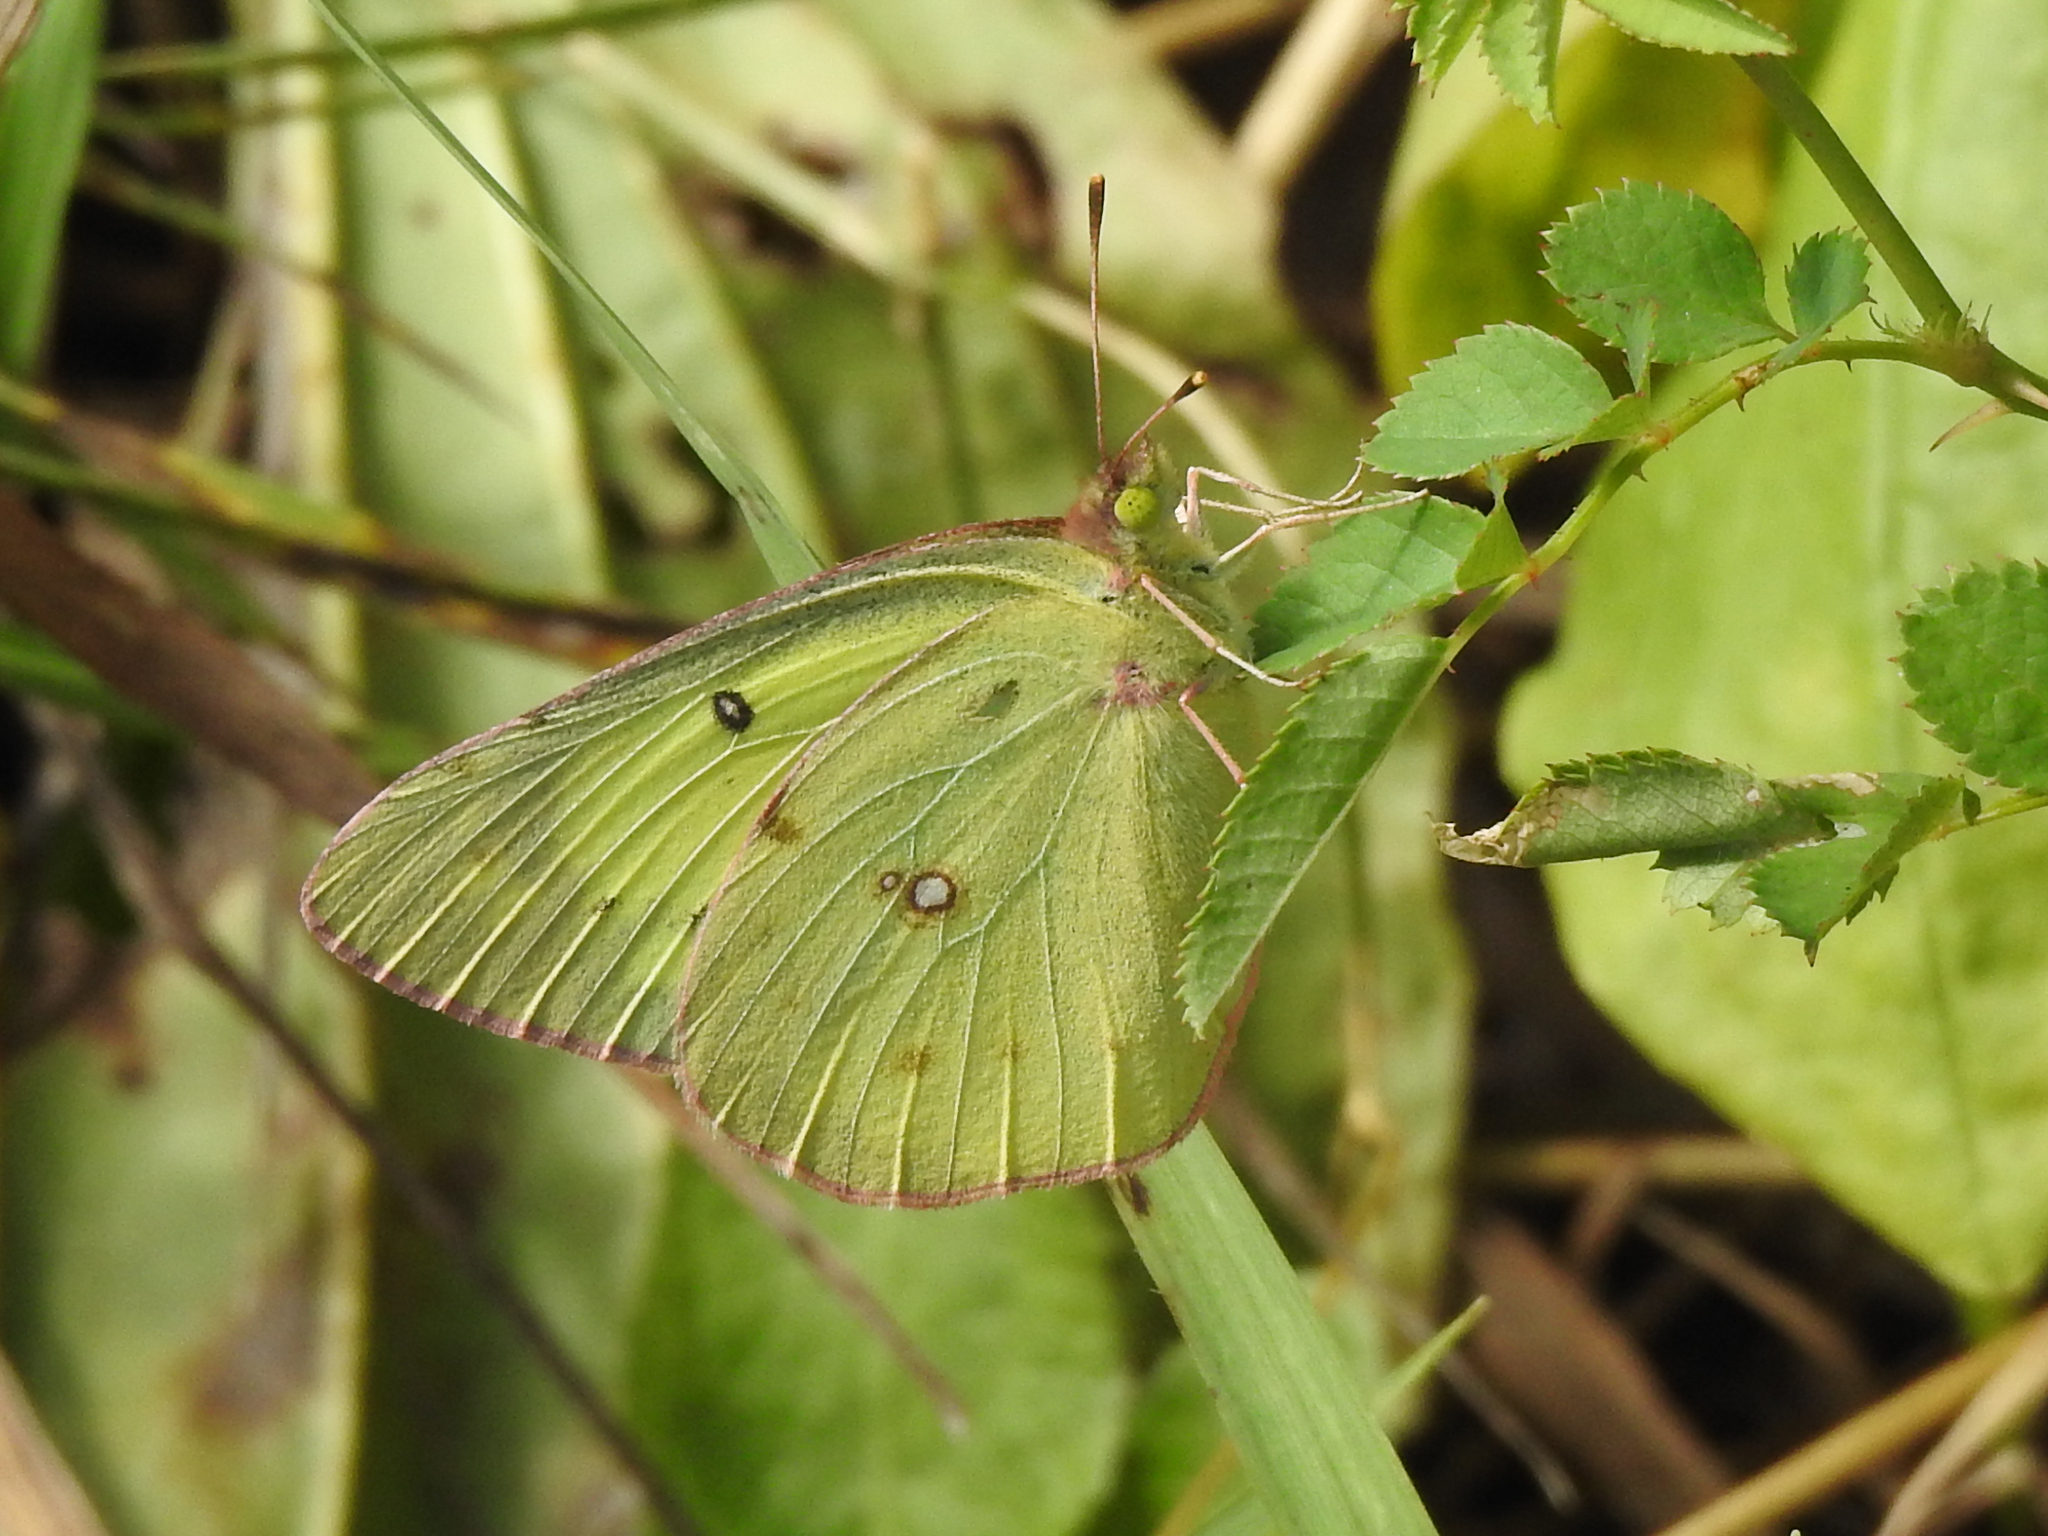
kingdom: Animalia
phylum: Arthropoda
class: Insecta
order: Lepidoptera
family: Pieridae
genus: Colias
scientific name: Colias philodice
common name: Clouded sulphur
